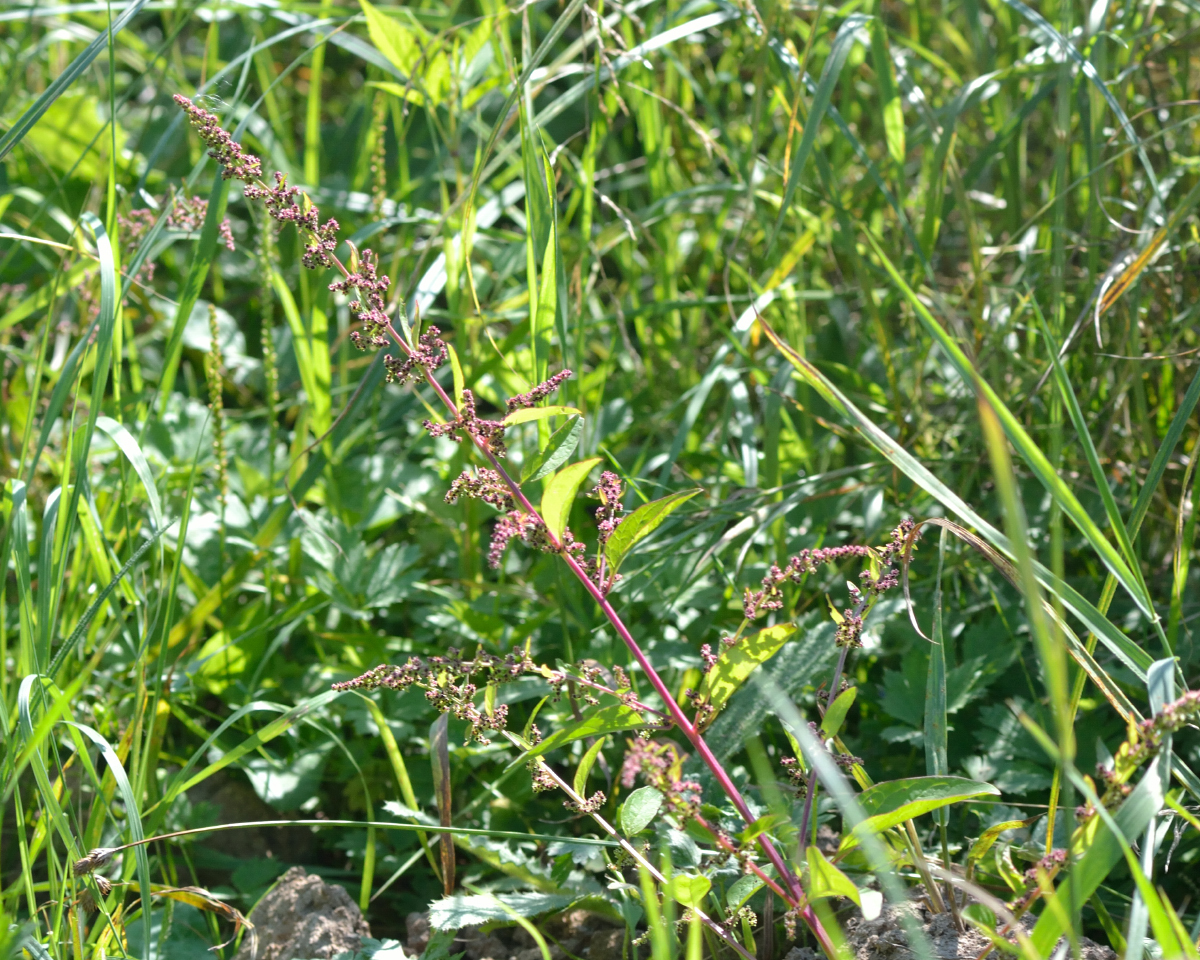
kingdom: Plantae
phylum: Tracheophyta
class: Magnoliopsida
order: Caryophyllales
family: Amaranthaceae
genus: Lipandra
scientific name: Lipandra polysperma
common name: Many-seed goosefoot
